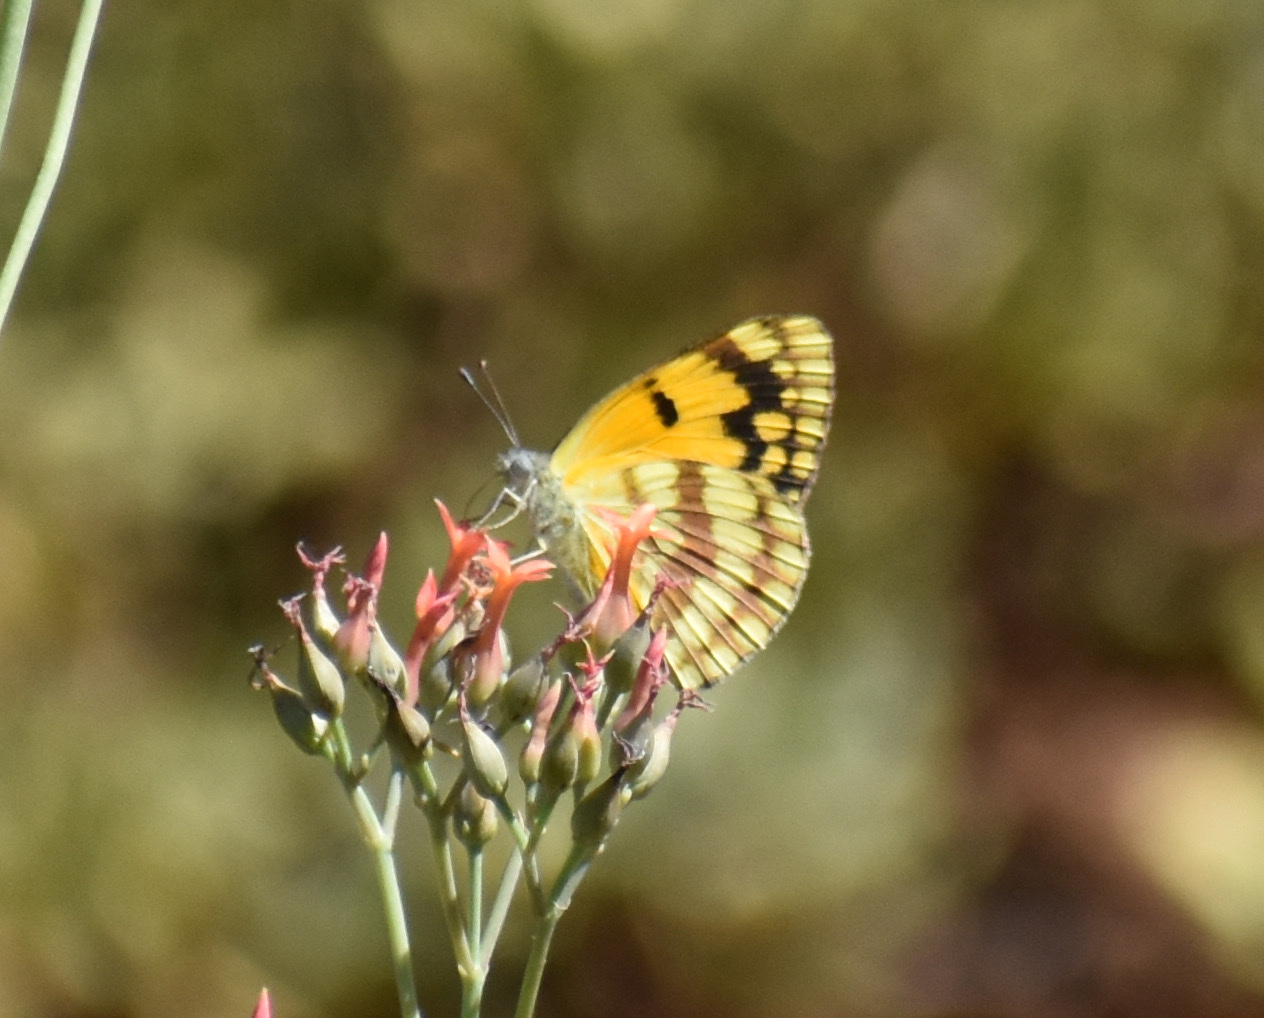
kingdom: Animalia
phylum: Arthropoda
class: Insecta
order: Lepidoptera
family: Pieridae
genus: Colotis
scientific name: Colotis vesta
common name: Veined golden arab
